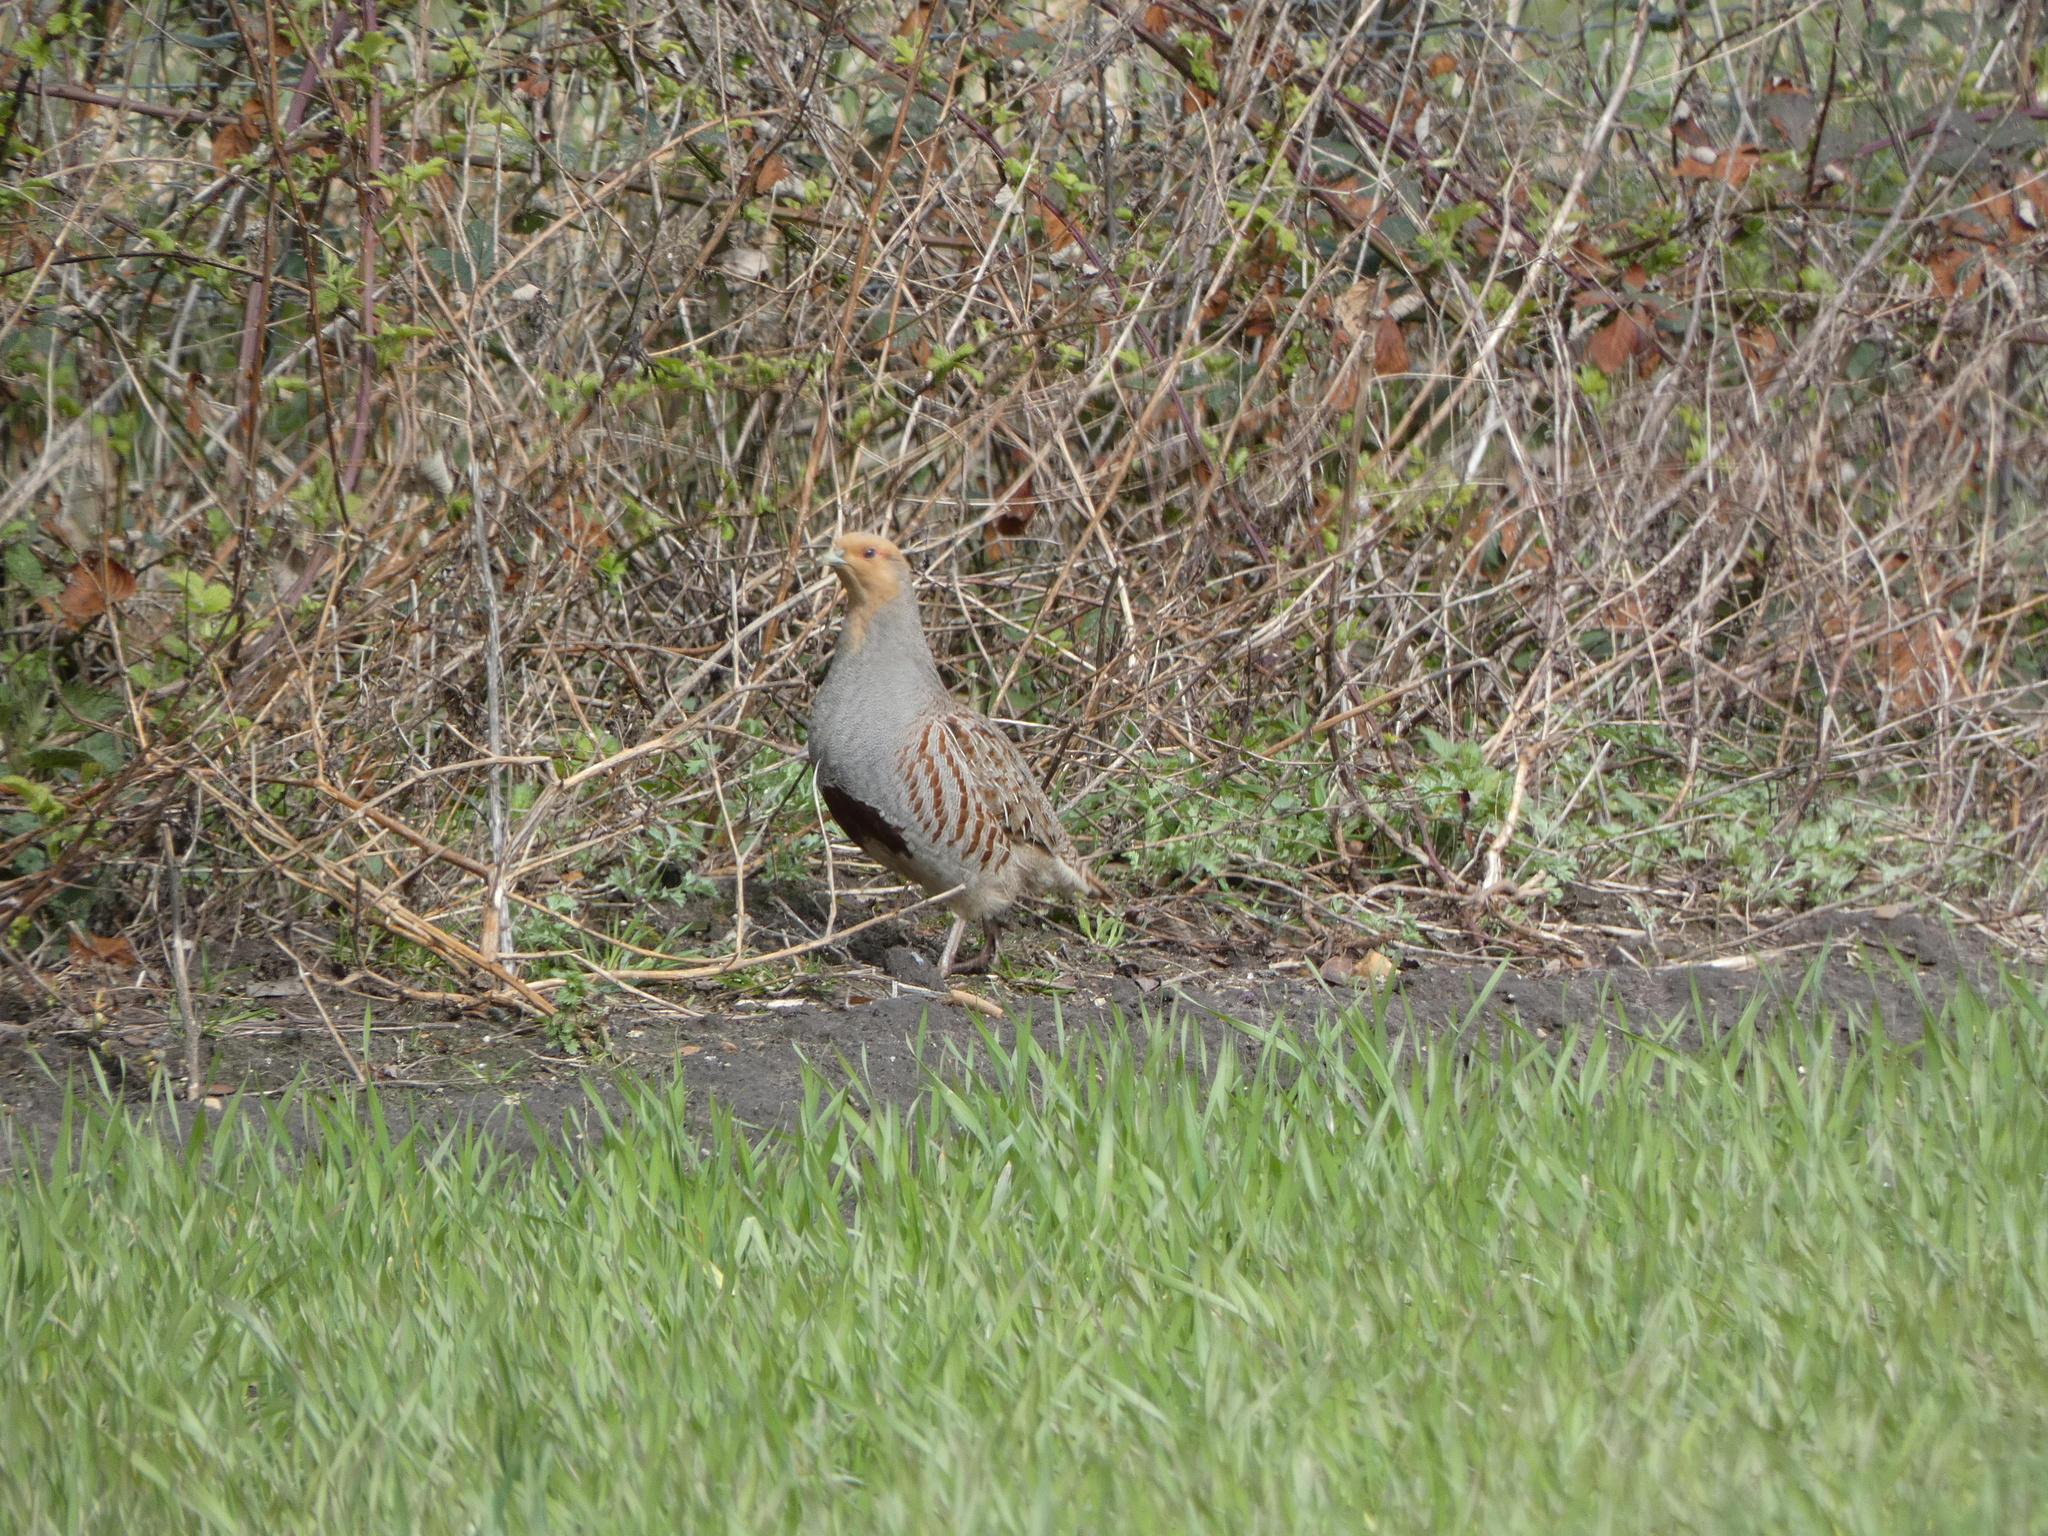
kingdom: Animalia
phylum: Chordata
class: Aves
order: Galliformes
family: Phasianidae
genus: Perdix
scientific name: Perdix perdix
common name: Grey partridge
